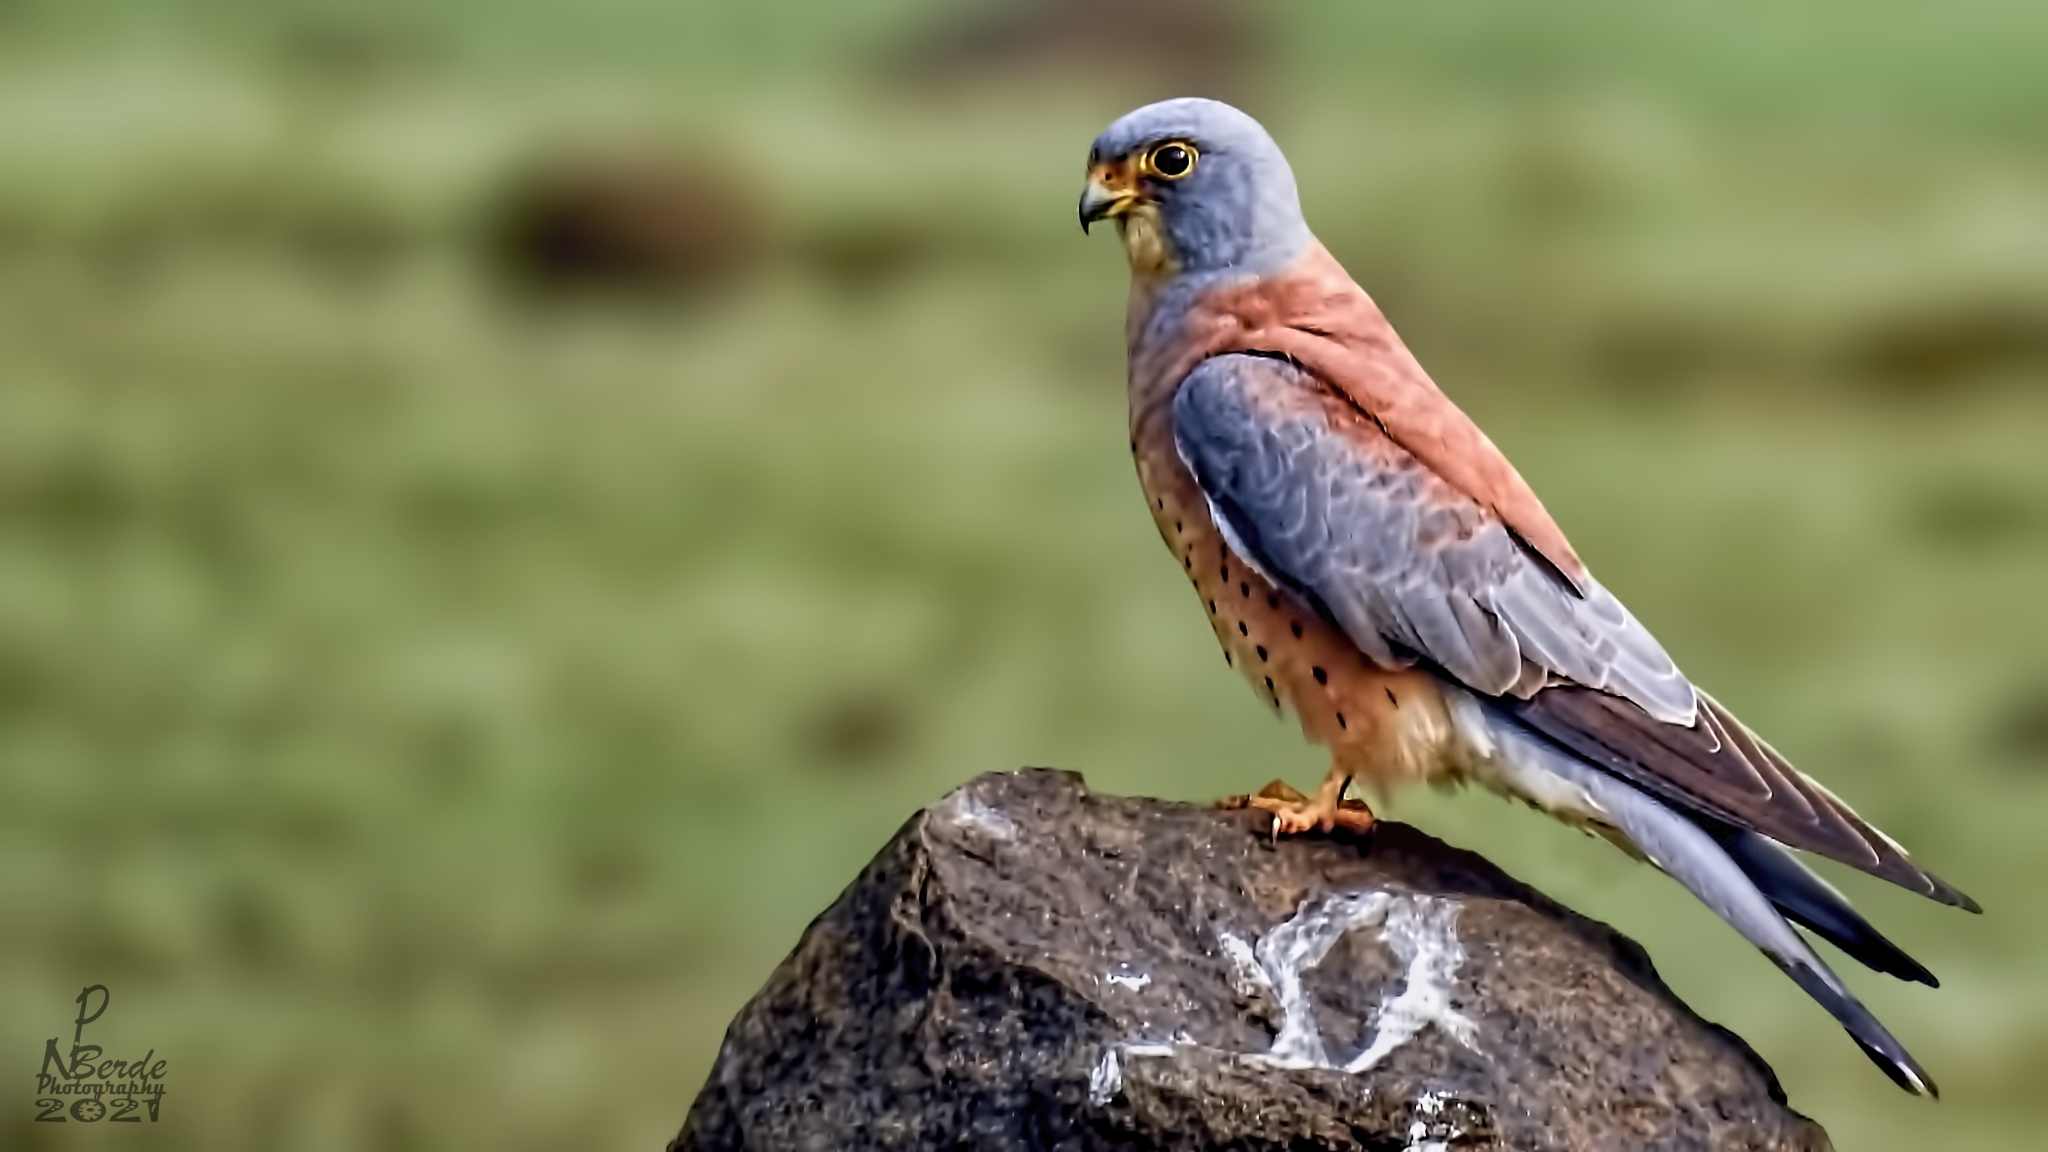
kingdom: Animalia
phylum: Chordata
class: Aves
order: Falconiformes
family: Falconidae
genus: Falco
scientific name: Falco naumanni
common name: Lesser kestrel
